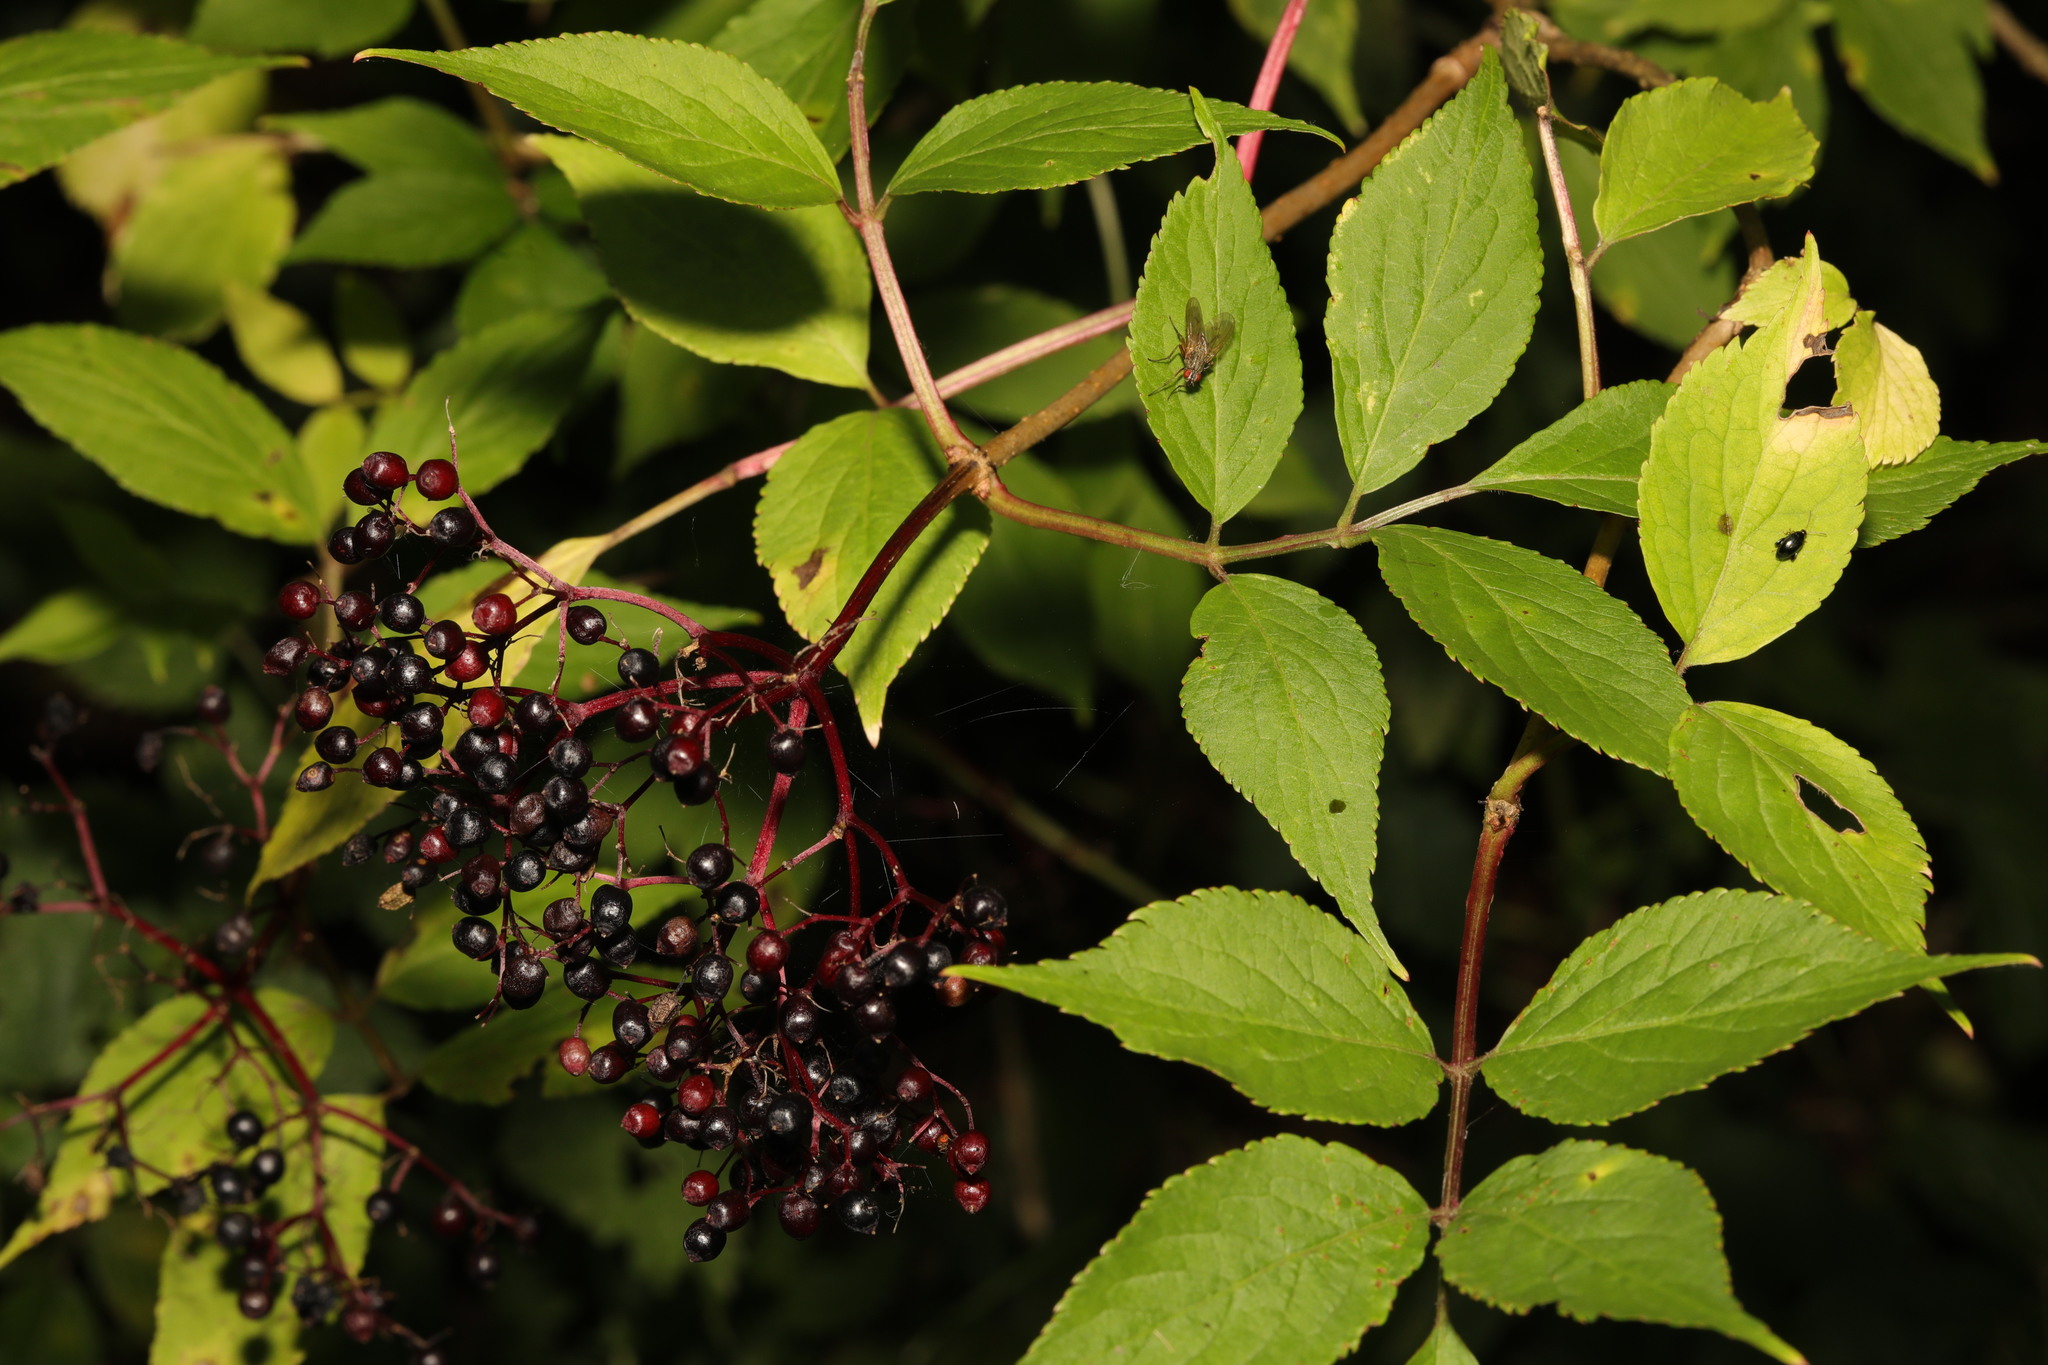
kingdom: Plantae
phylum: Tracheophyta
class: Magnoliopsida
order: Dipsacales
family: Viburnaceae
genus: Sambucus
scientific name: Sambucus nigra
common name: Elder
